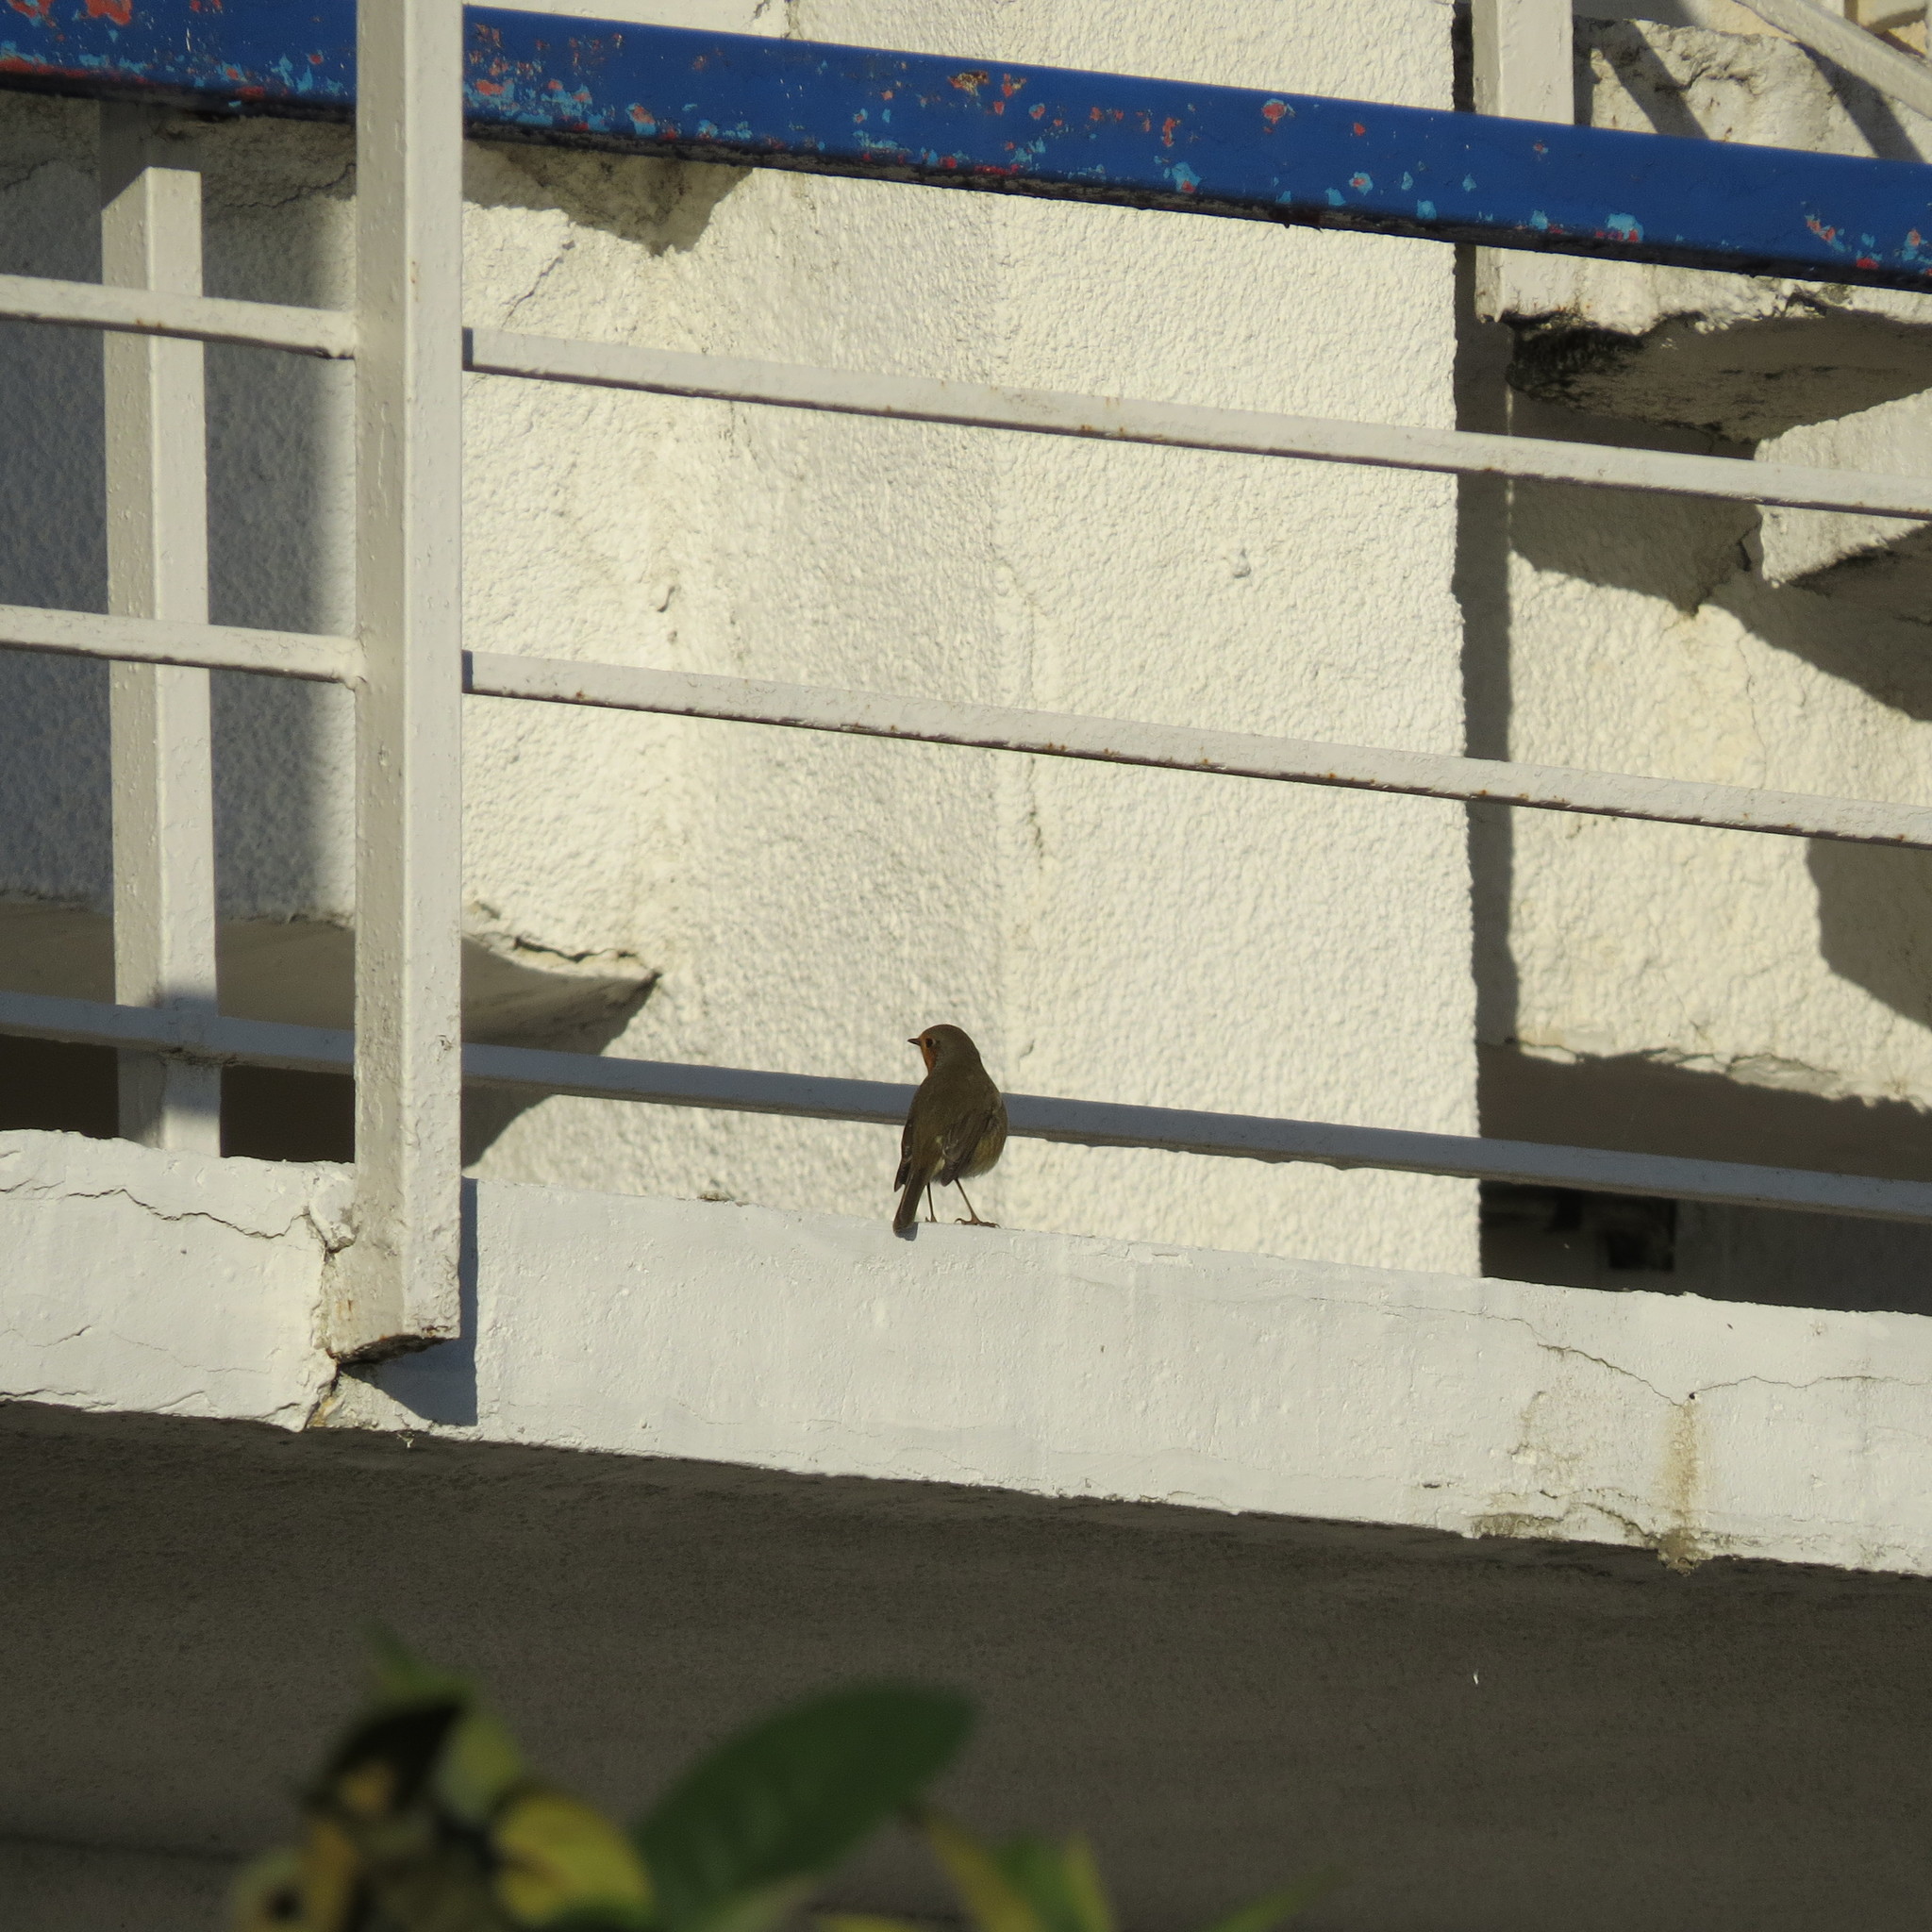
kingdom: Animalia
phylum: Chordata
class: Aves
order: Passeriformes
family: Muscicapidae
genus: Erithacus
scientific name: Erithacus rubecula
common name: European robin
